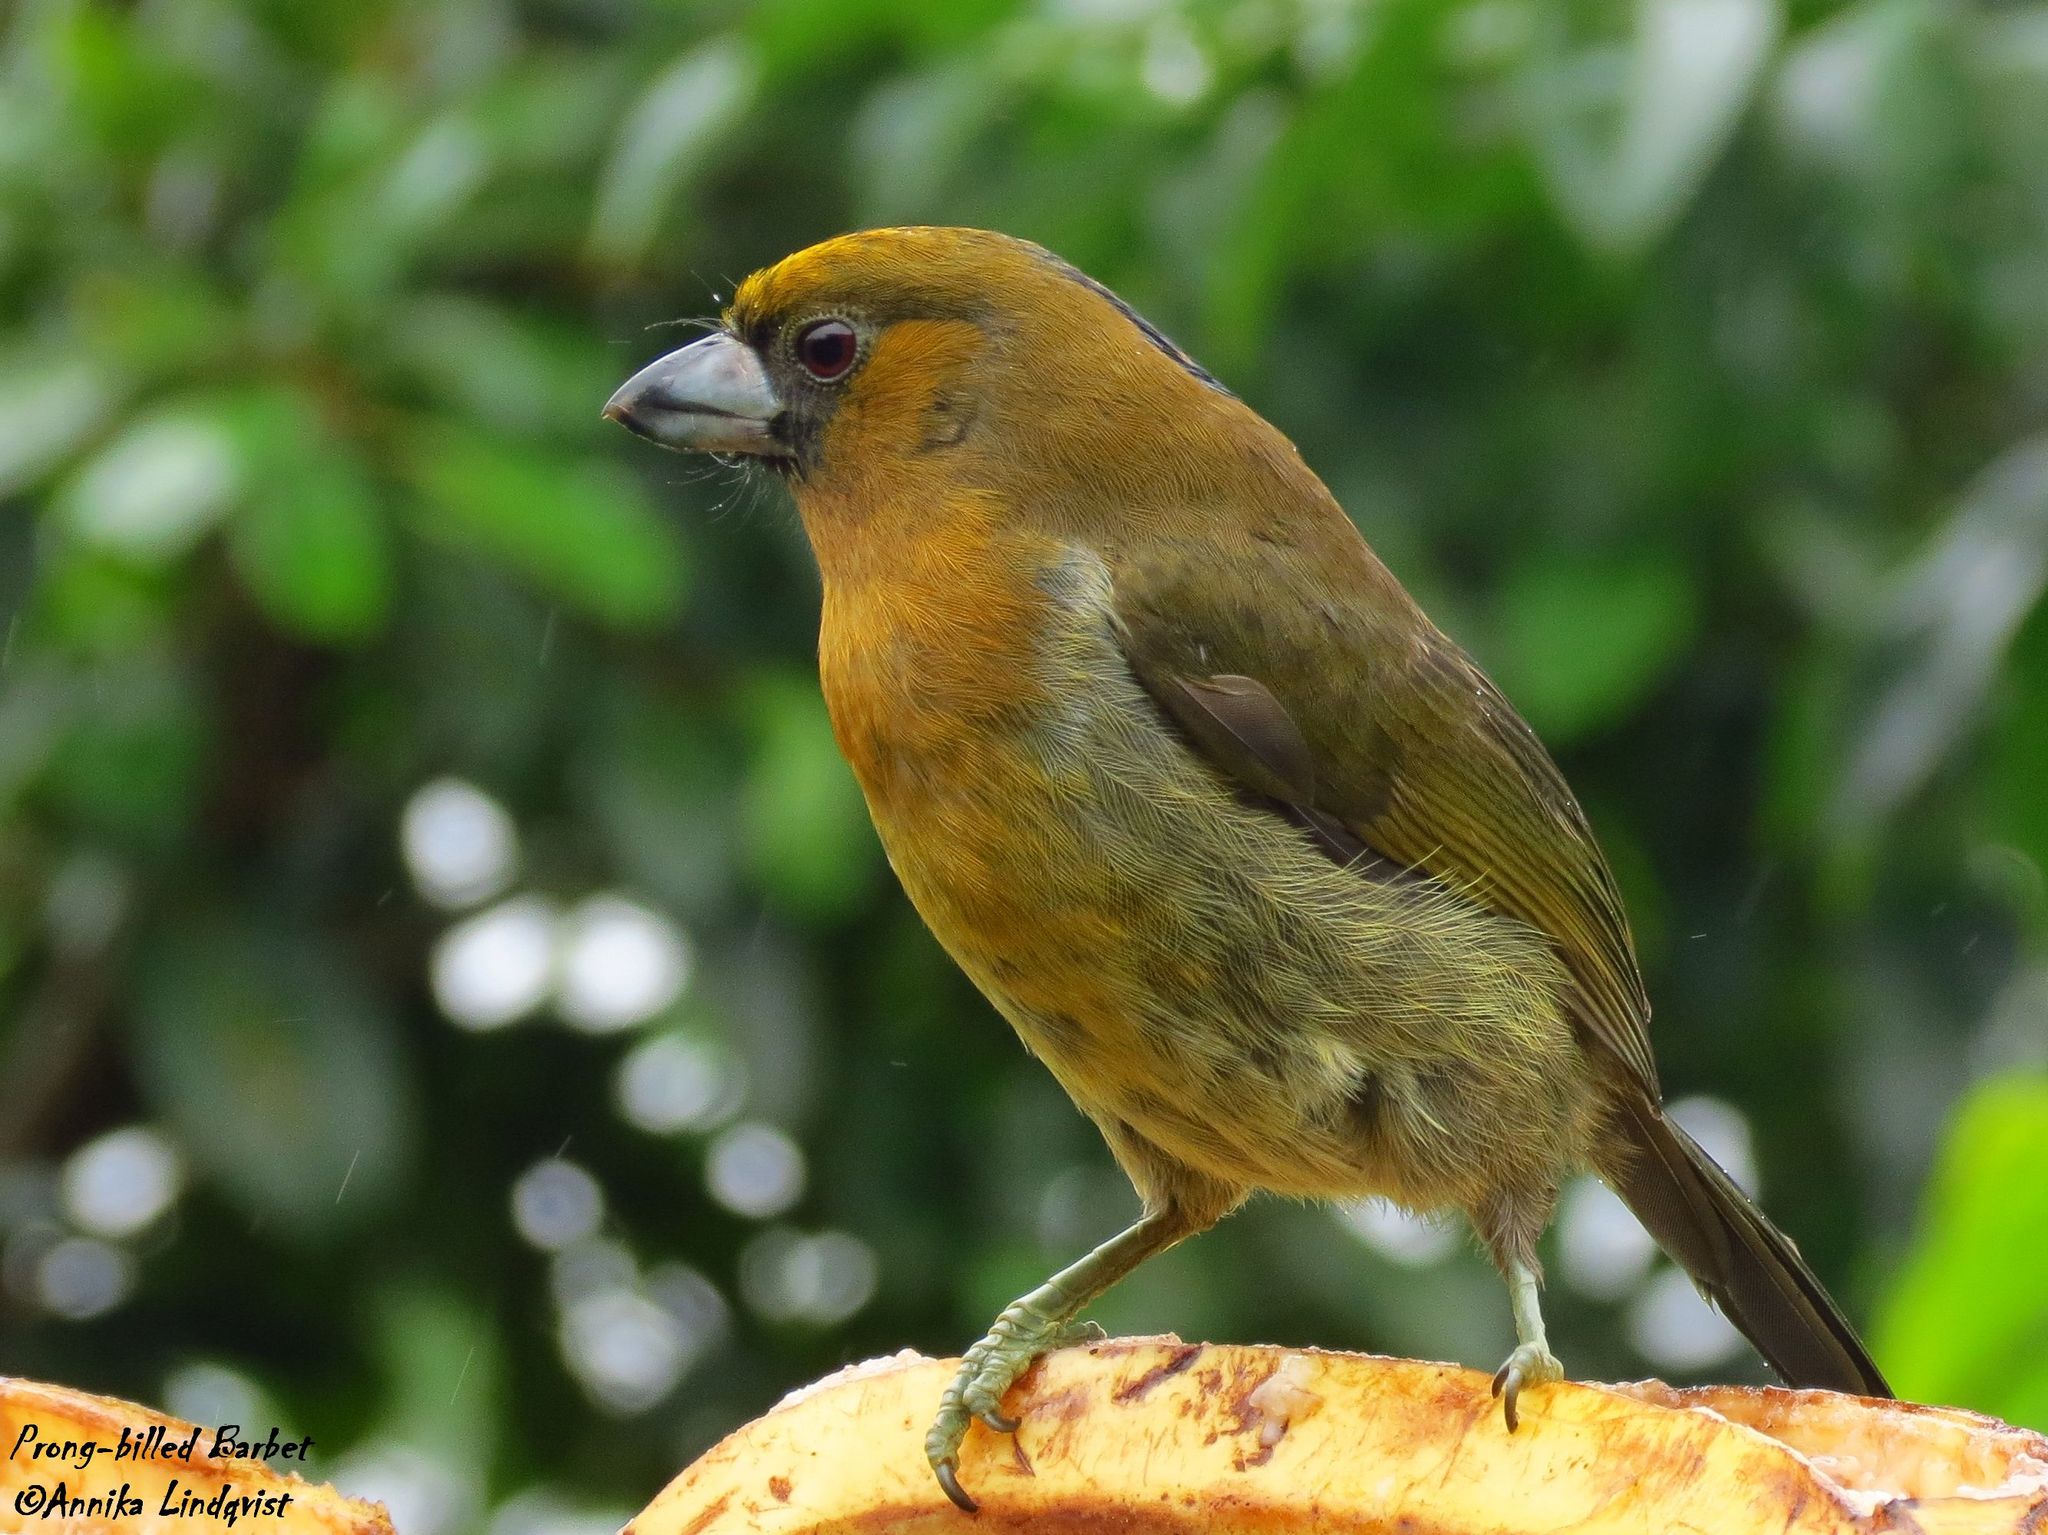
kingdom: Animalia
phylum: Chordata
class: Aves
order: Piciformes
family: Semnornithidae
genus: Semnornis
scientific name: Semnornis frantzii
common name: Prong-billed barbet
